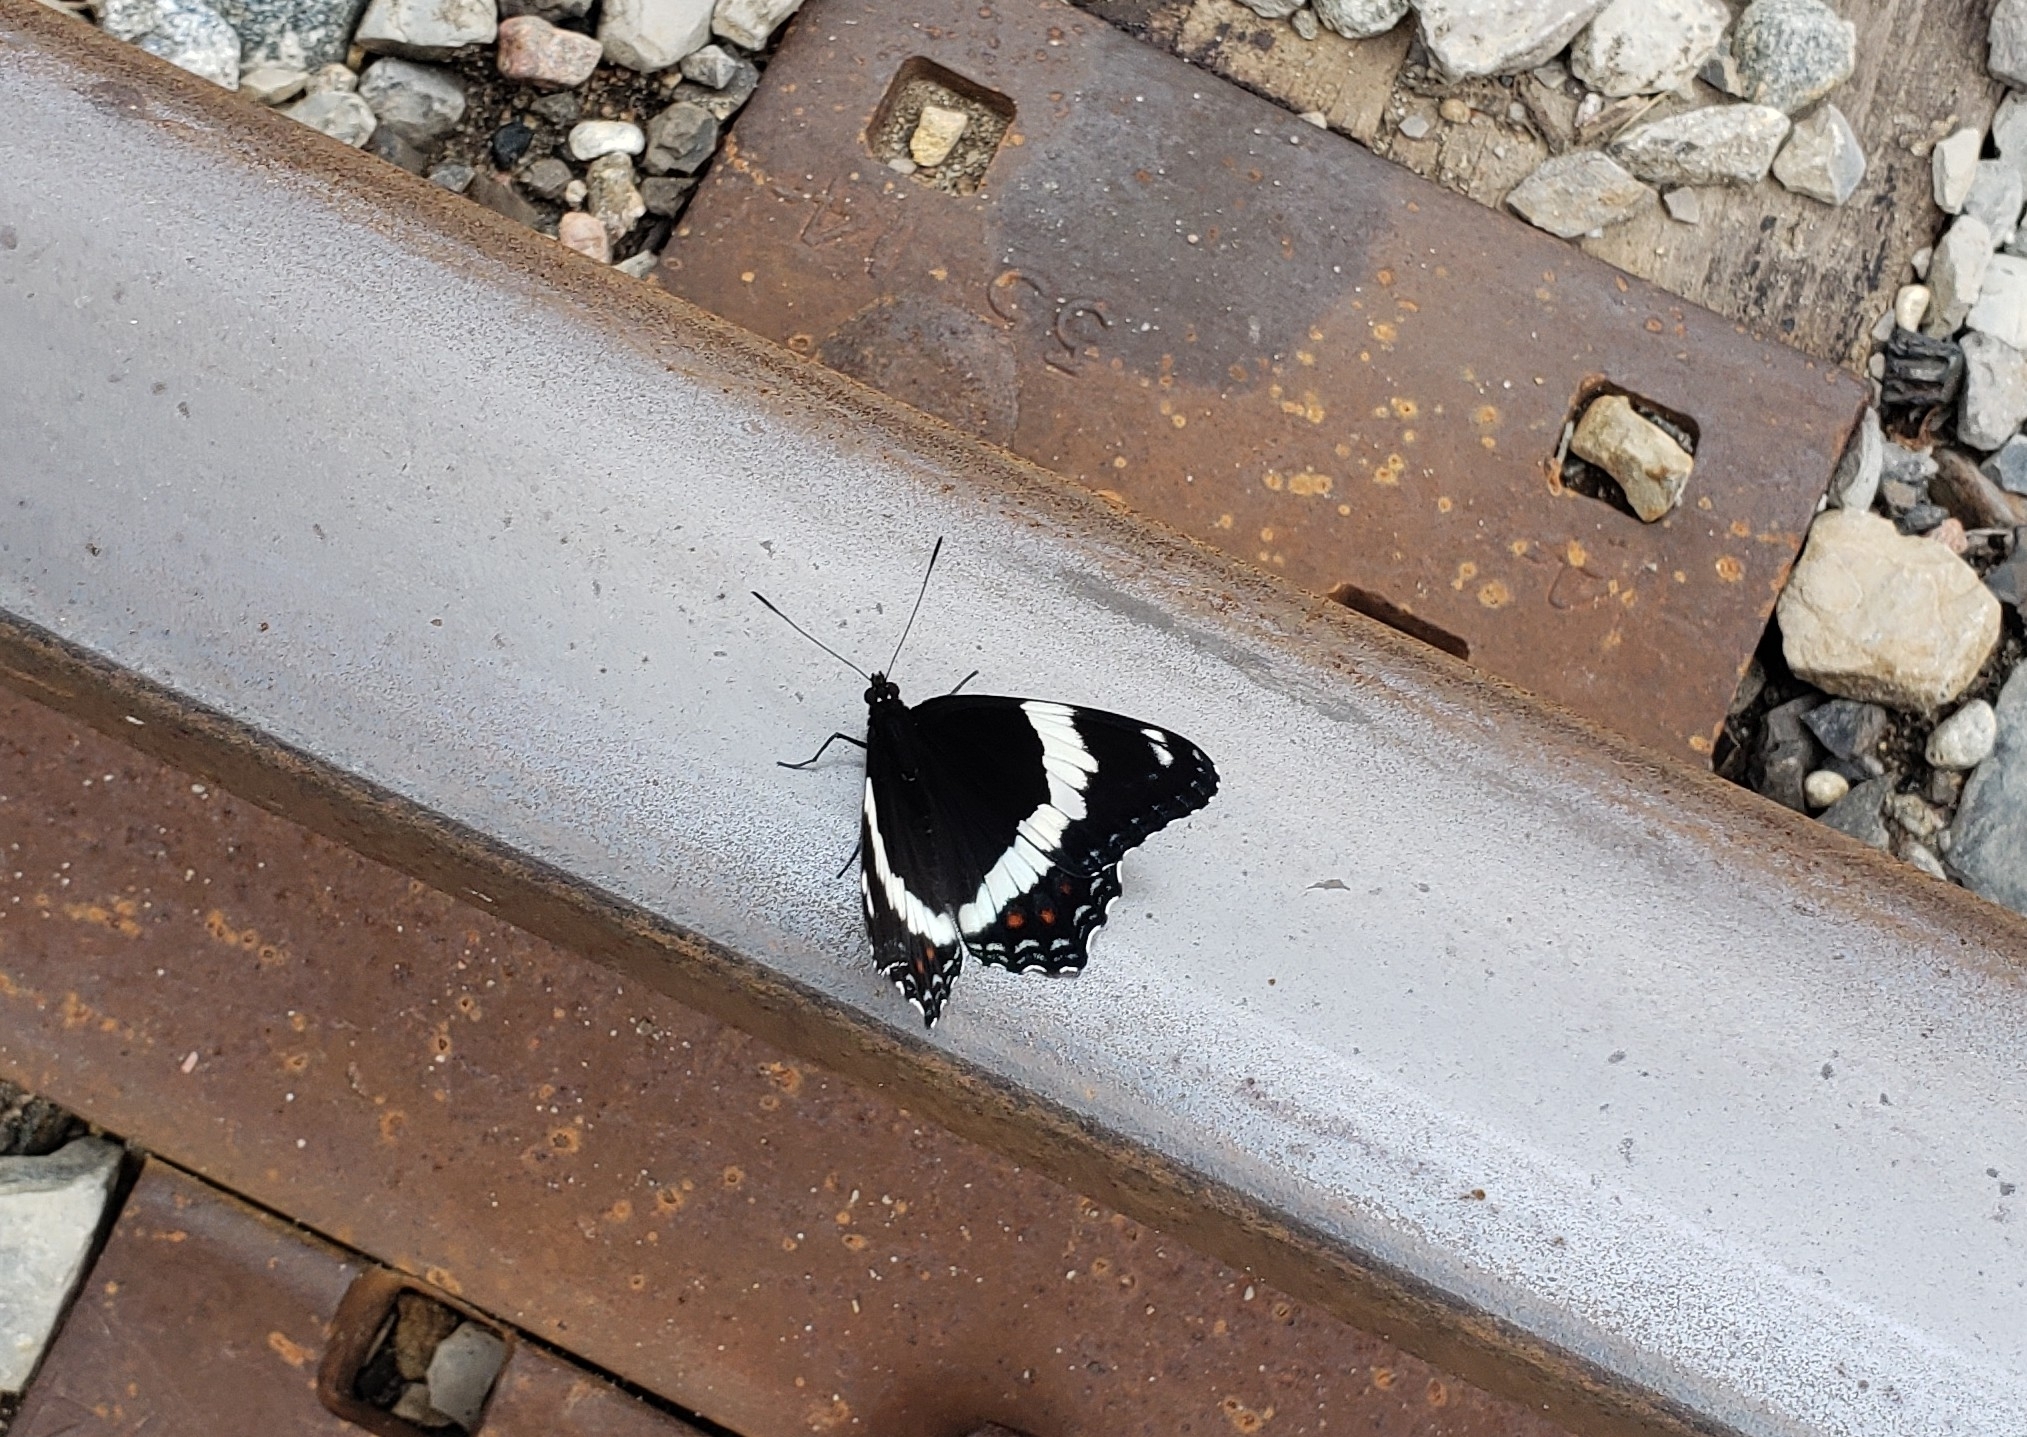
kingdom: Animalia
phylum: Arthropoda
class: Insecta
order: Lepidoptera
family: Nymphalidae
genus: Limenitis
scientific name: Limenitis arthemis
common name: Red-spotted admiral
